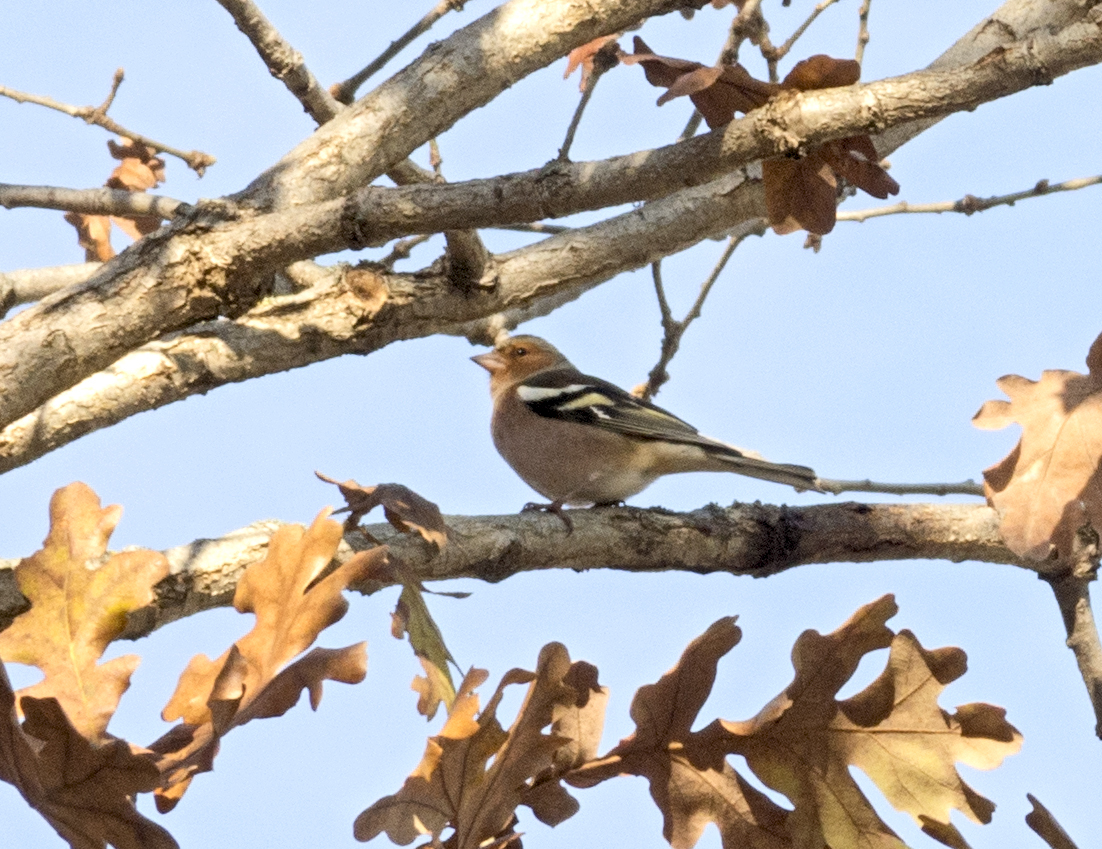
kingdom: Animalia
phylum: Chordata
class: Aves
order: Passeriformes
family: Fringillidae
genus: Fringilla
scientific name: Fringilla coelebs
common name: Common chaffinch
